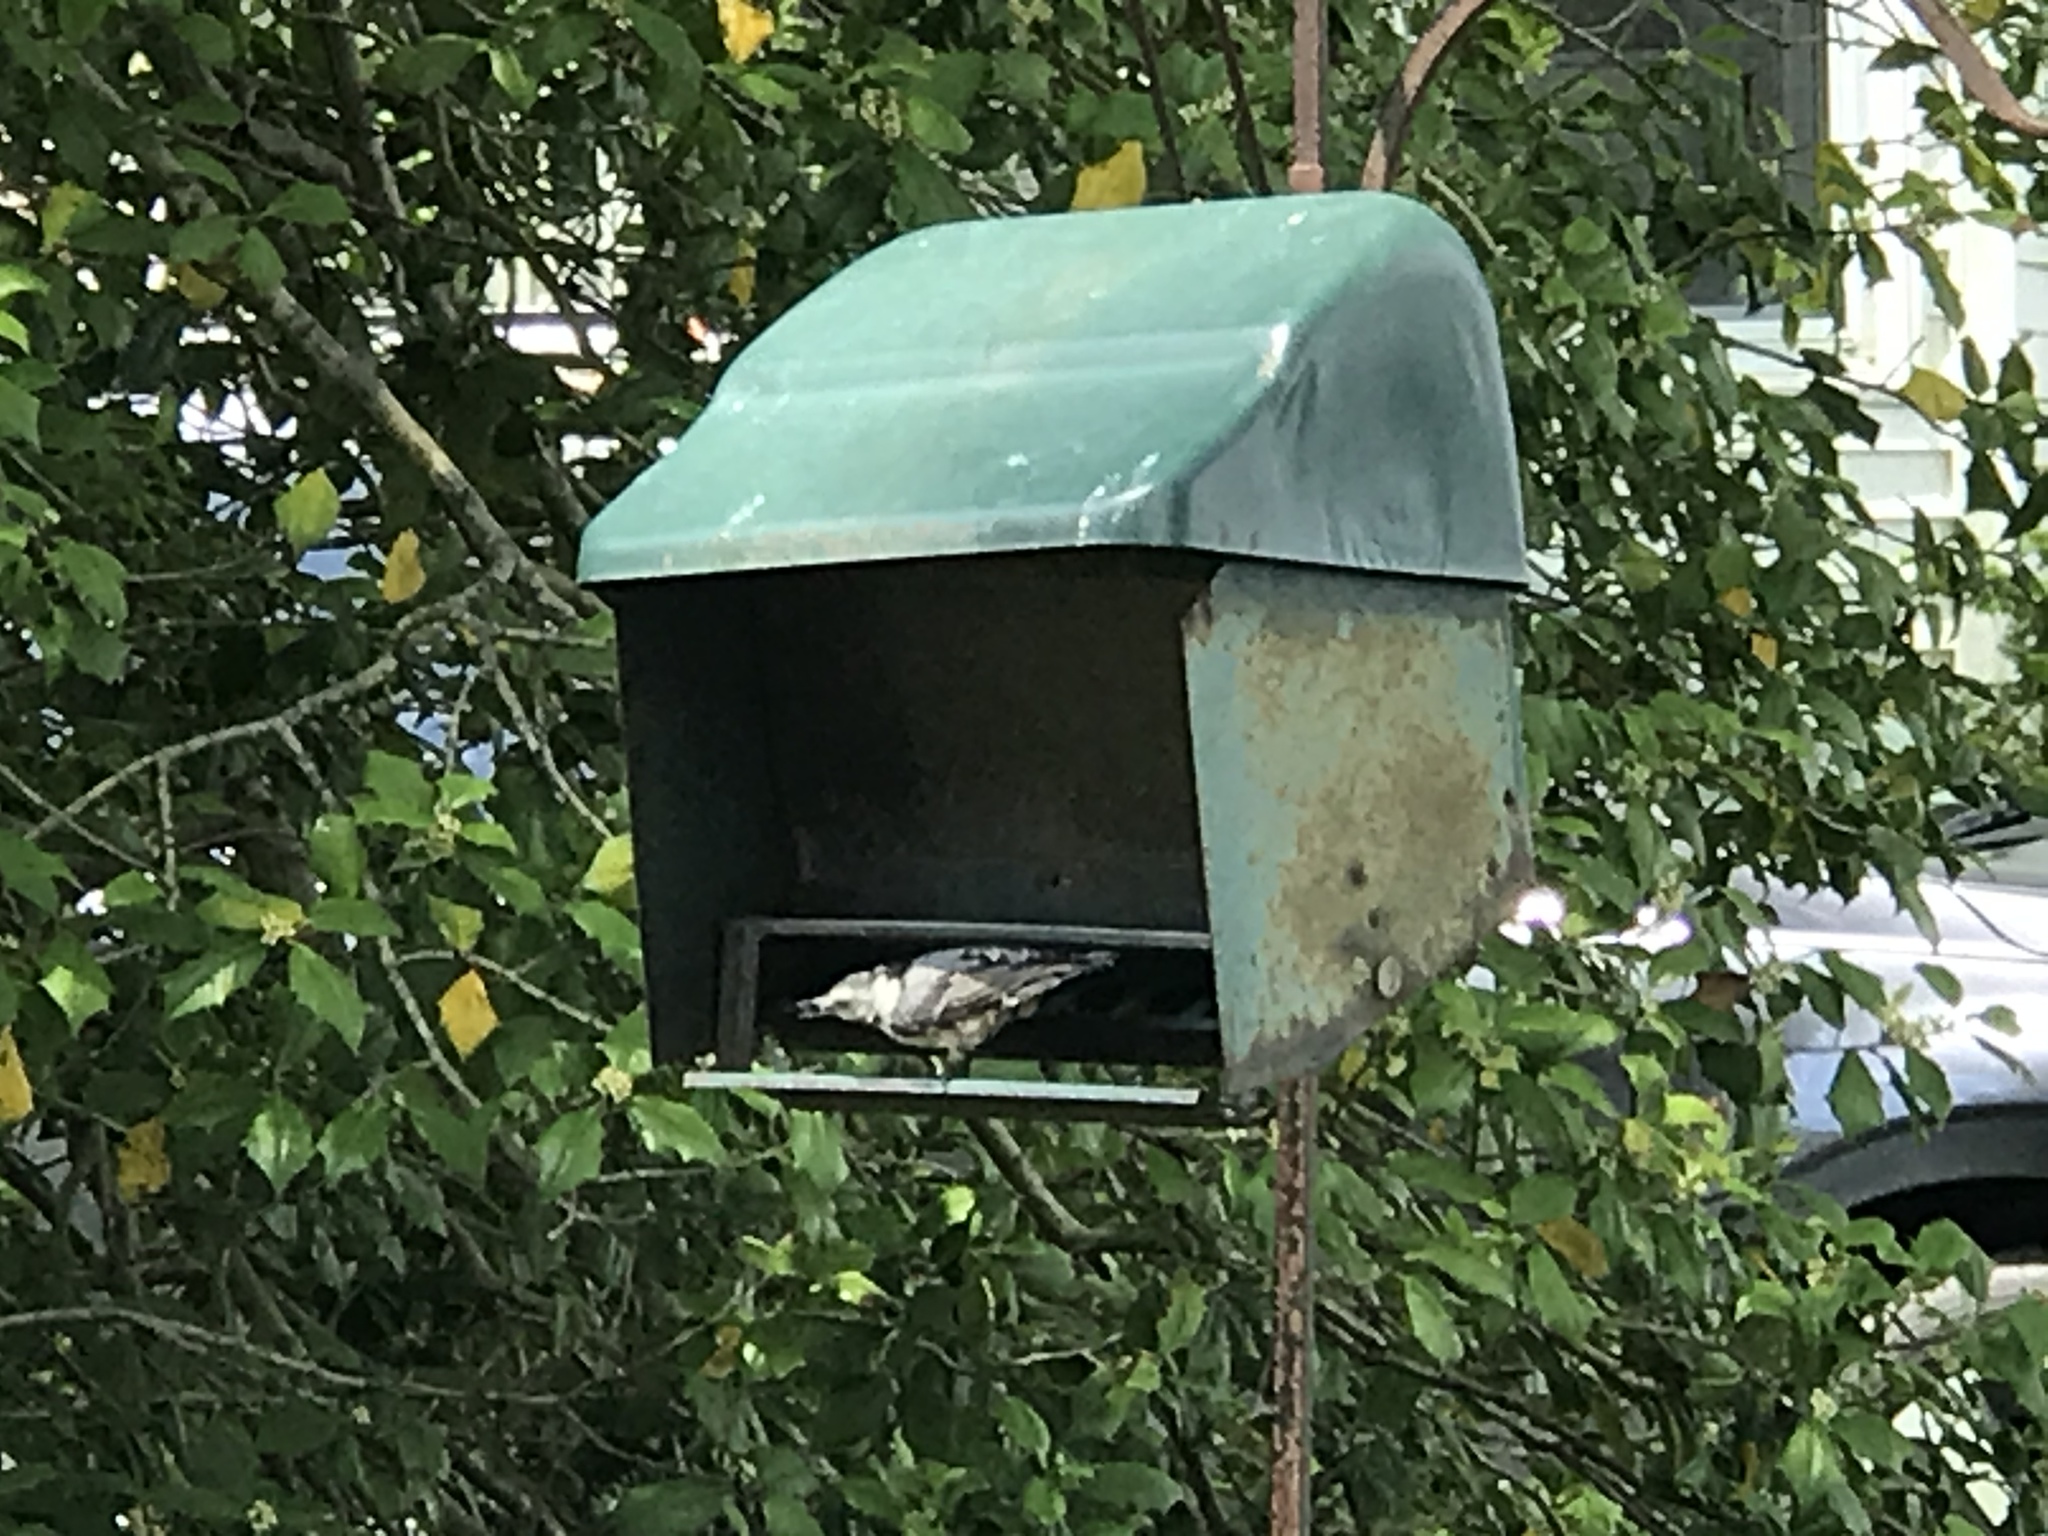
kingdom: Animalia
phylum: Chordata
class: Aves
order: Passeriformes
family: Sittidae
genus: Sitta
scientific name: Sitta carolinensis
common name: White-breasted nuthatch
